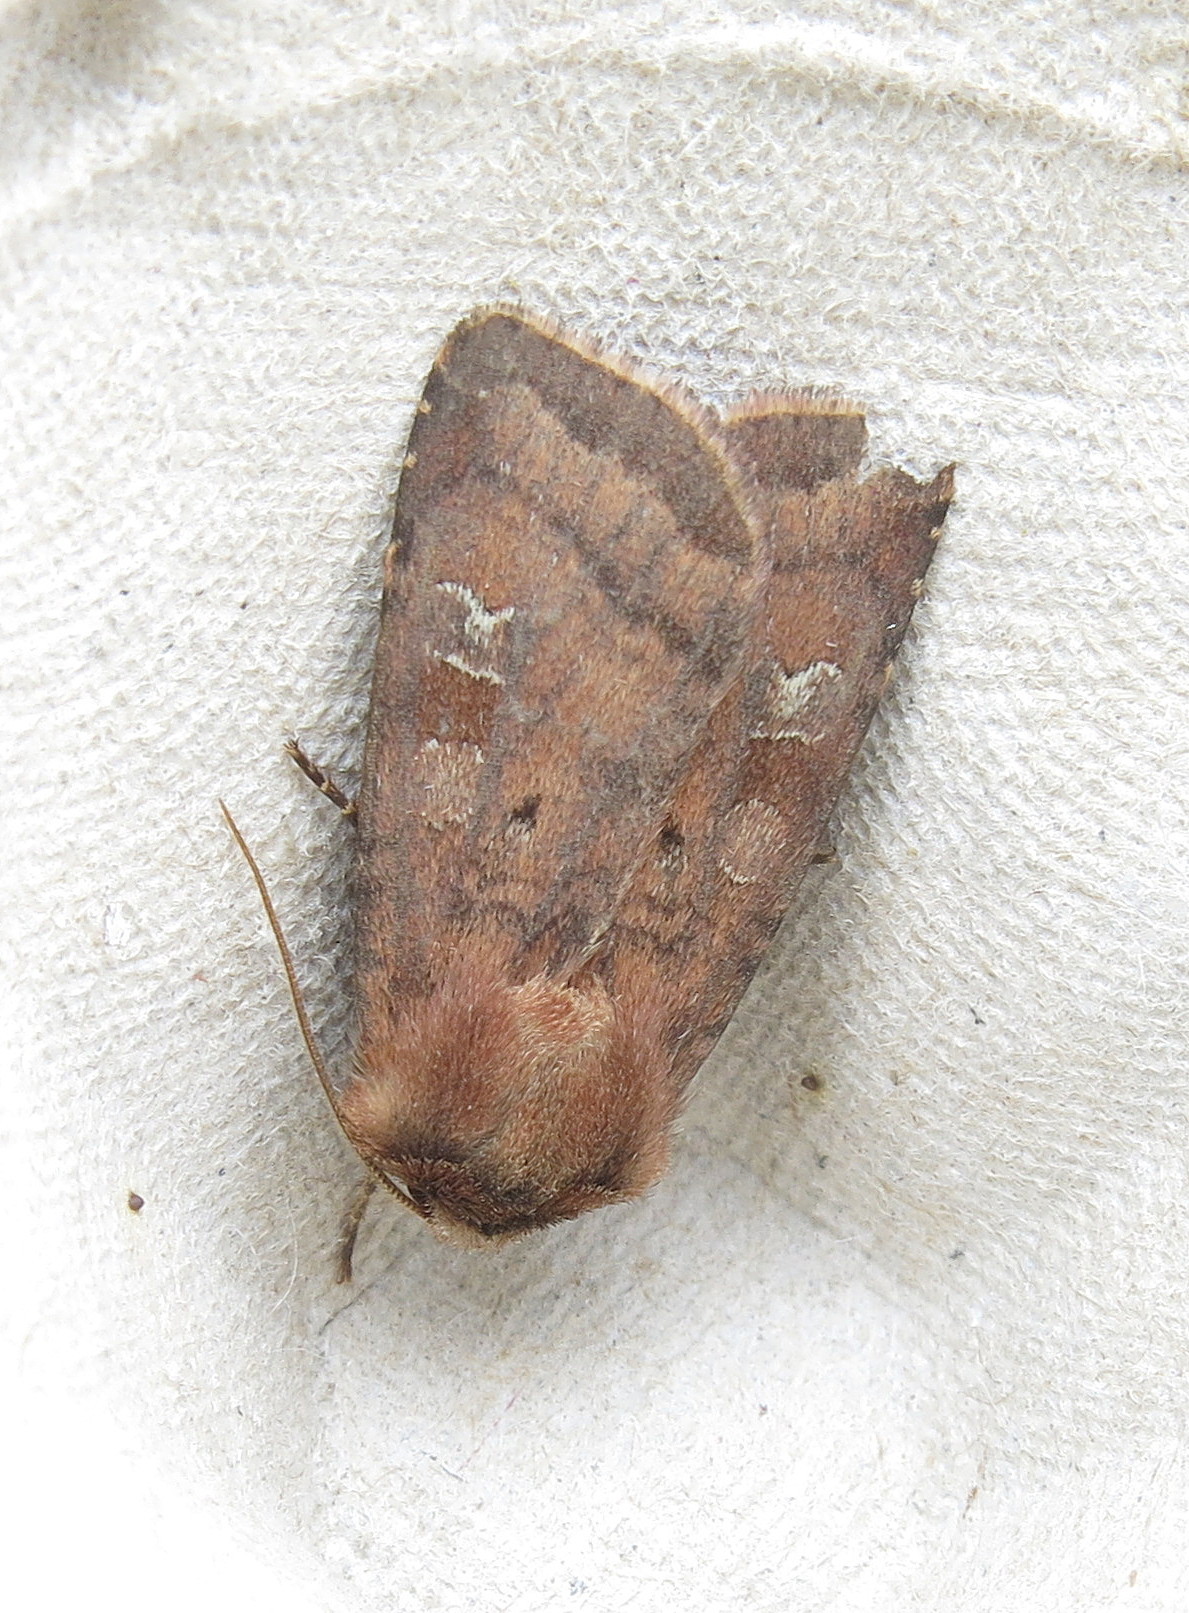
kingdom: Animalia
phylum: Arthropoda
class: Insecta
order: Lepidoptera
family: Noctuidae
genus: Diarsia
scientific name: Diarsia rubi
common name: Small square-spot
